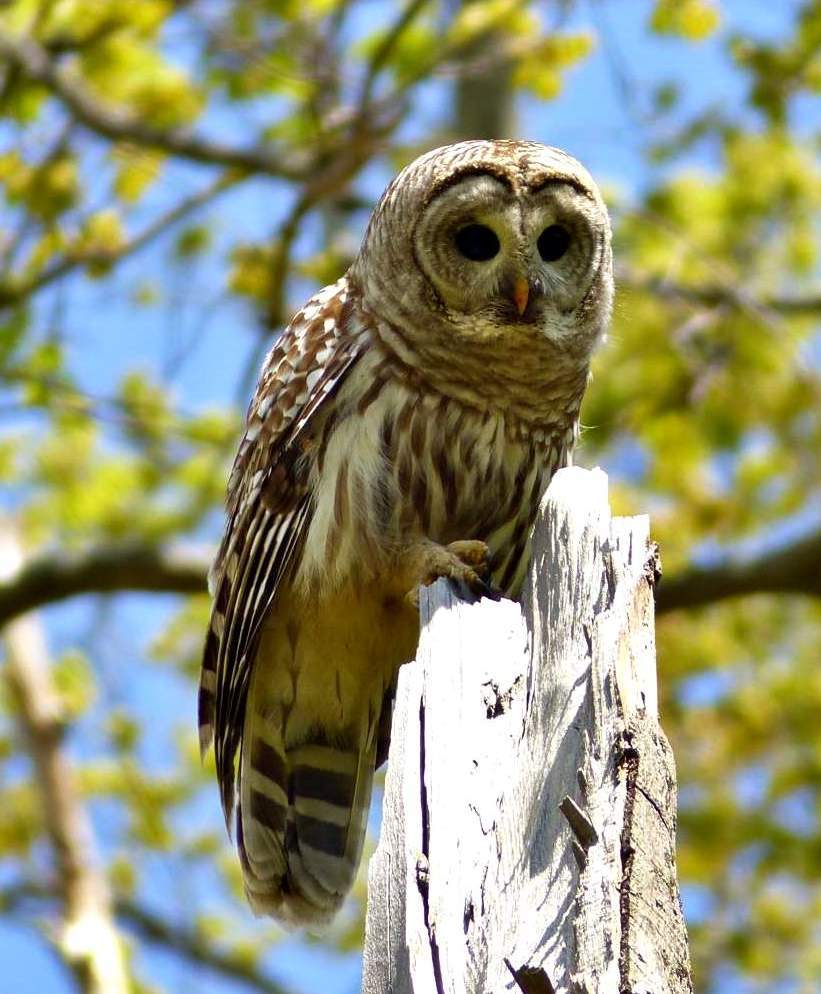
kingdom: Animalia
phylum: Chordata
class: Aves
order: Strigiformes
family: Strigidae
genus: Strix
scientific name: Strix varia
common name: Barred owl
